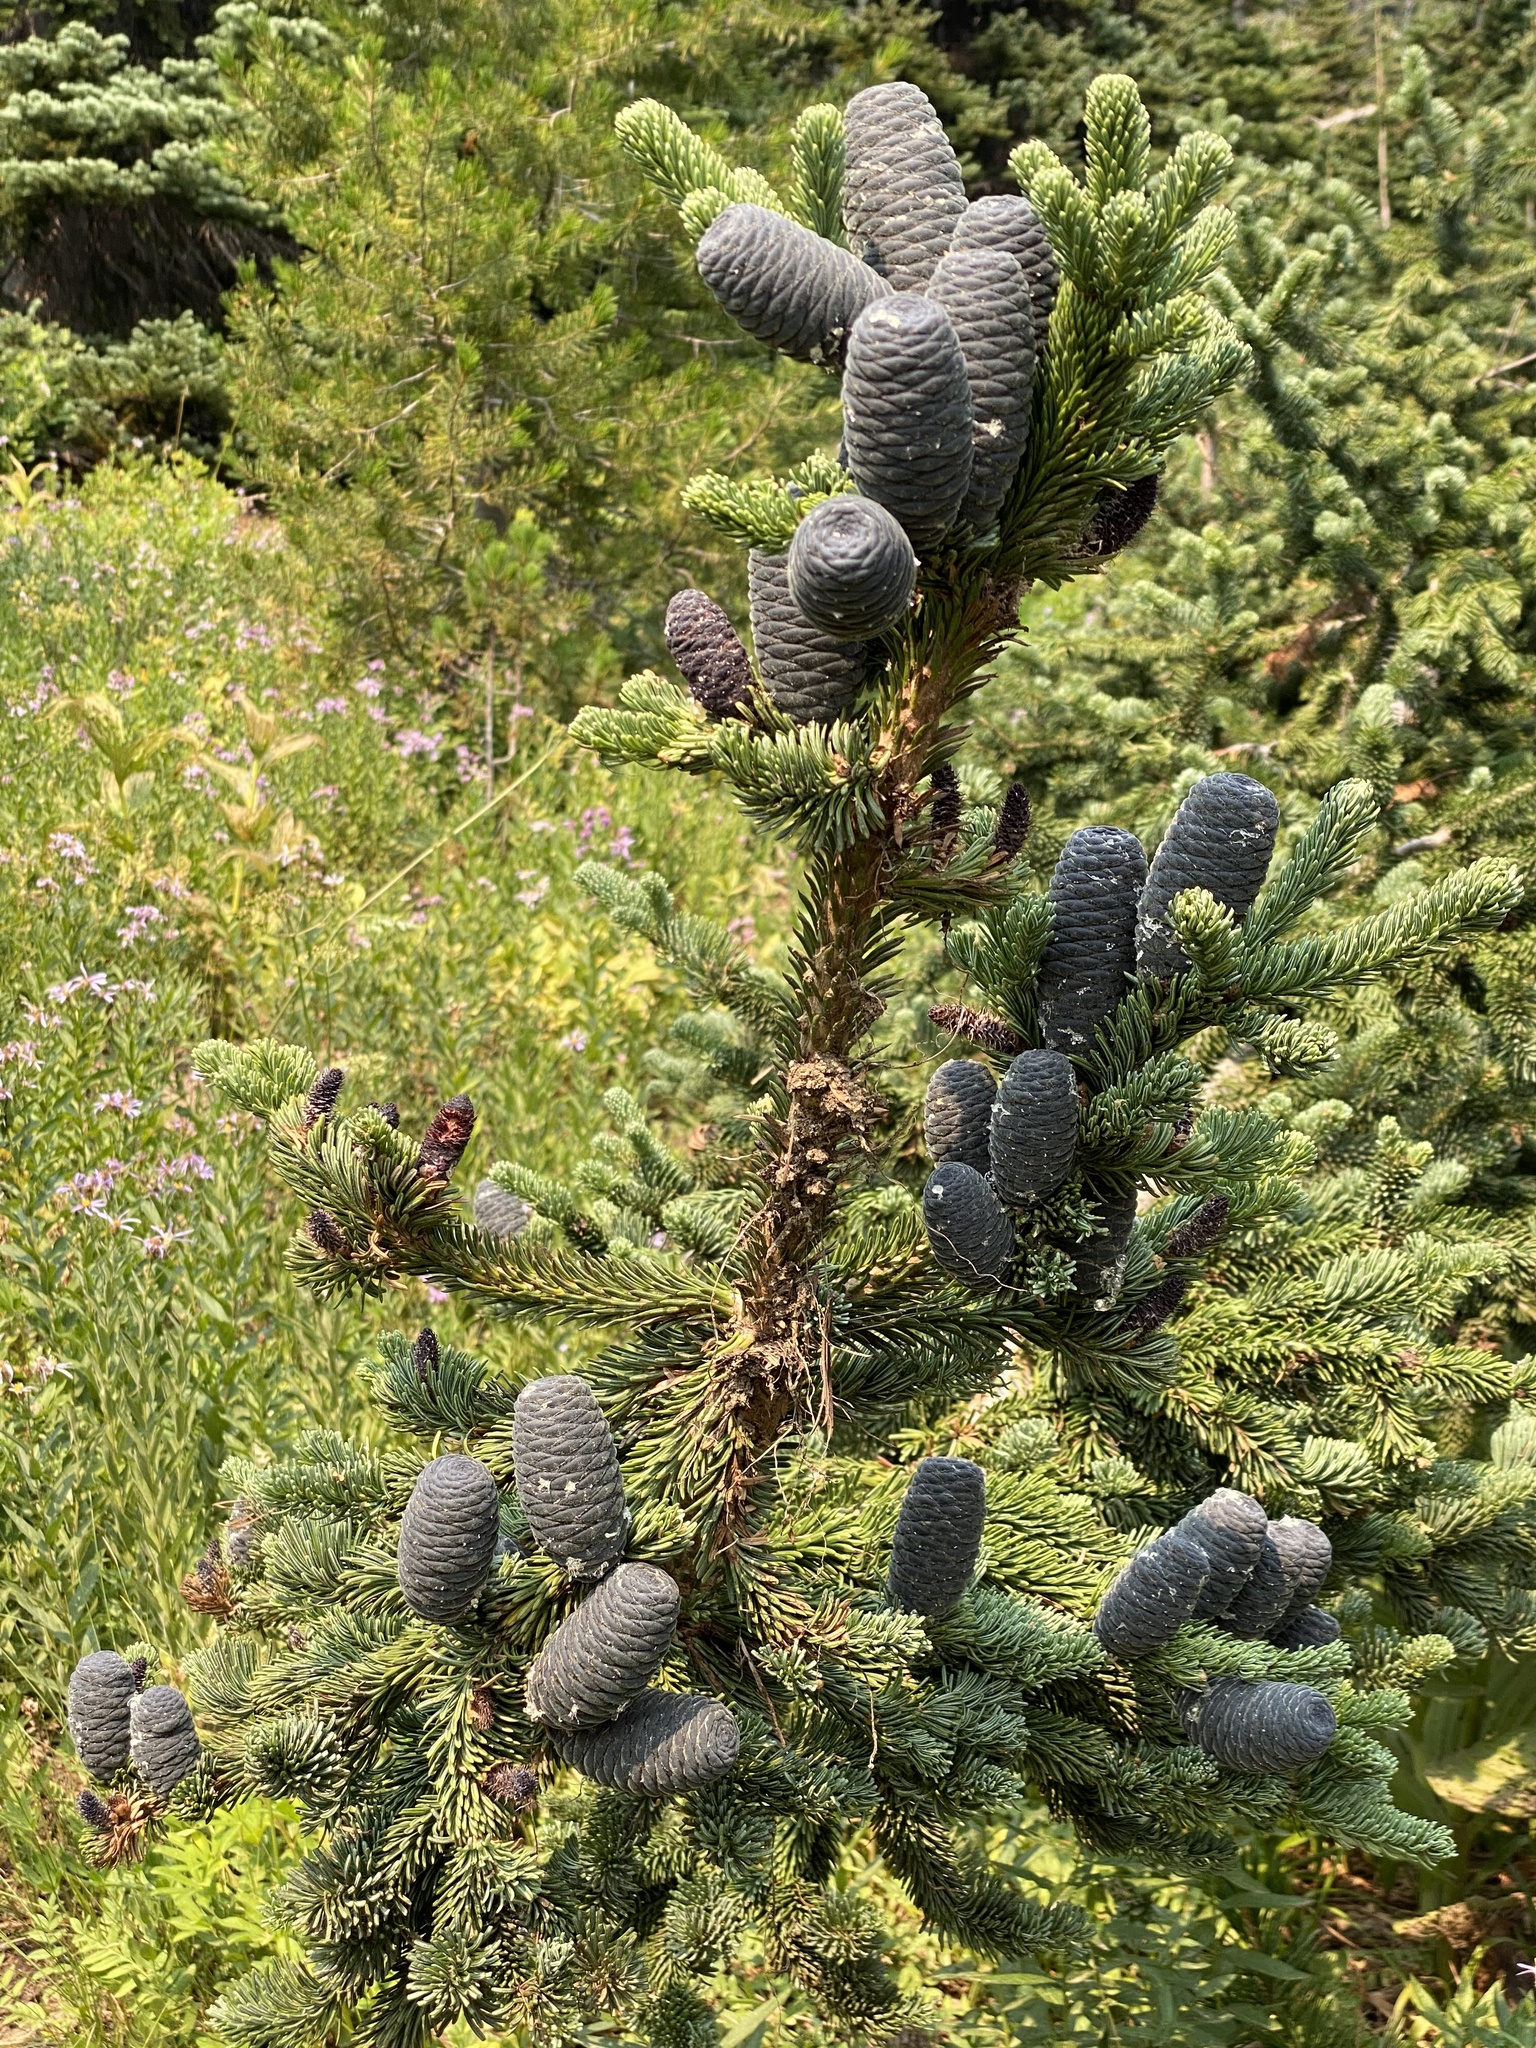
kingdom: Plantae
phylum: Tracheophyta
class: Pinopsida
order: Pinales
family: Pinaceae
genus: Abies
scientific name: Abies lasiocarpa
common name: Subalpine fir
